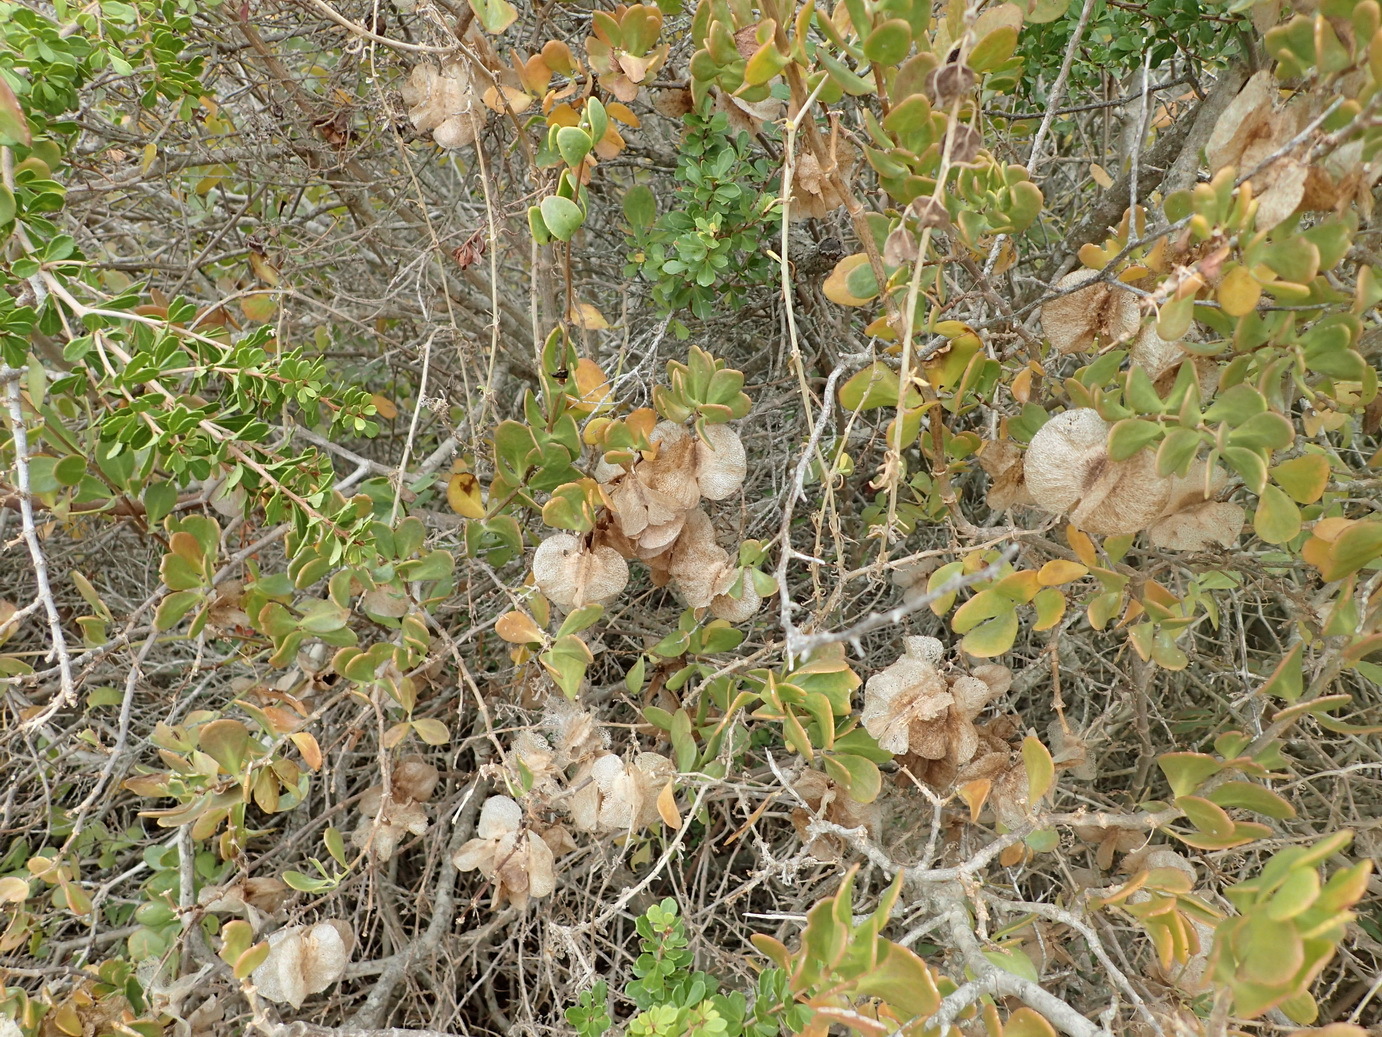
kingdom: Plantae
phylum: Tracheophyta
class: Magnoliopsida
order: Zygophyllales
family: Zygophyllaceae
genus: Roepera
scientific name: Roepera morgsana
